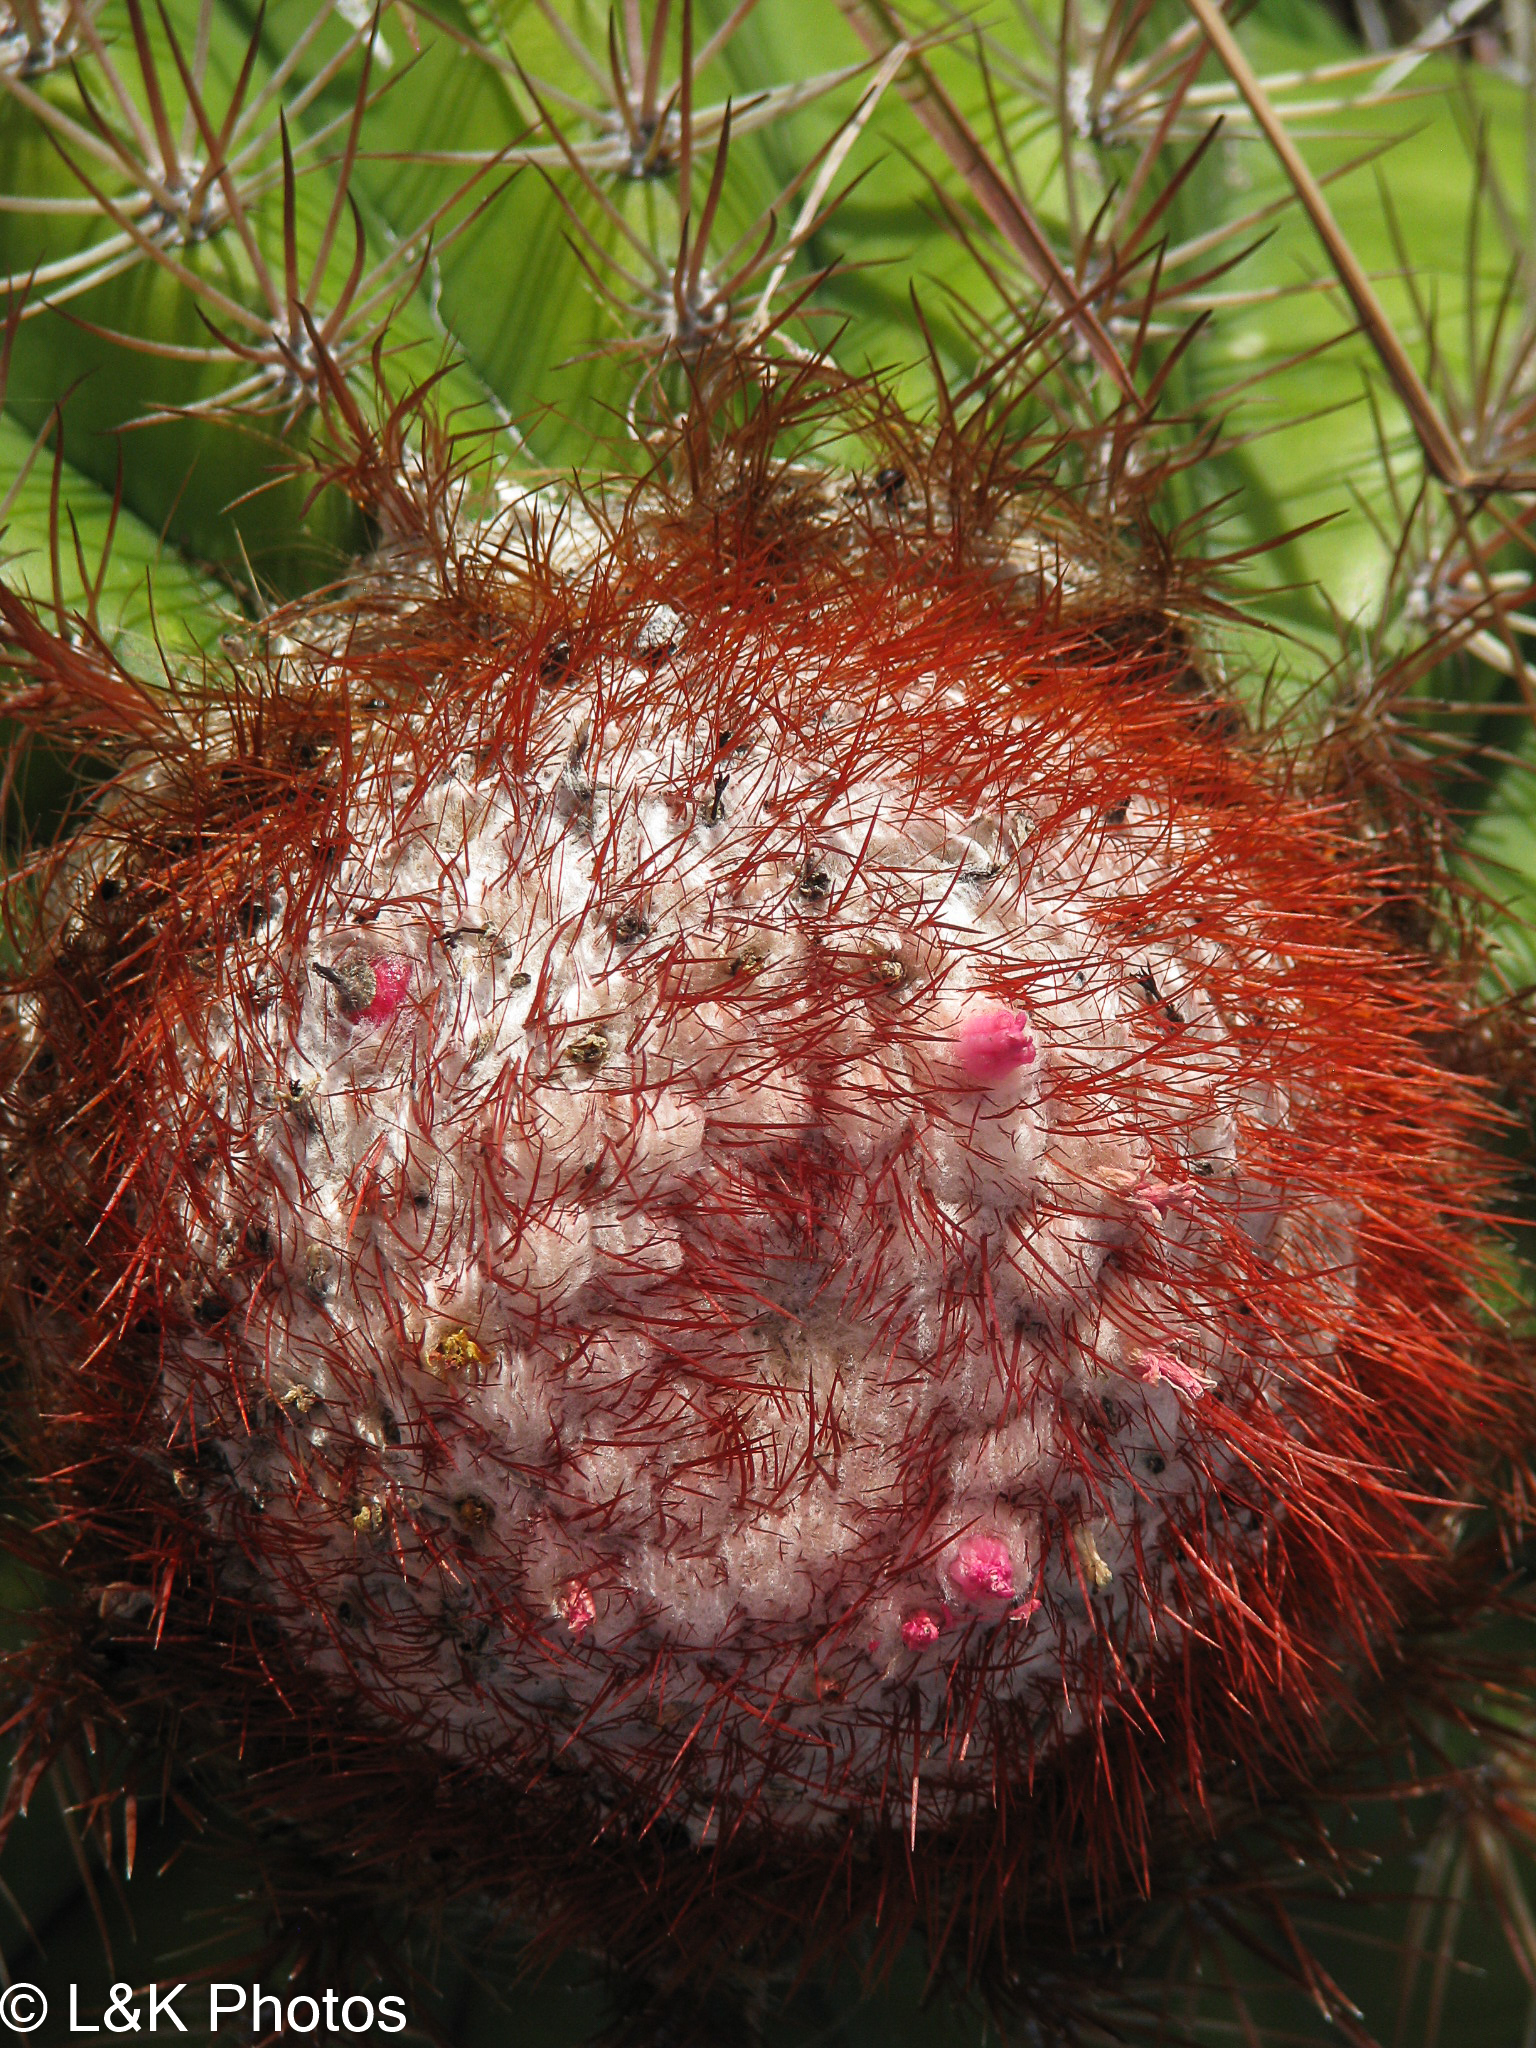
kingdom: Plantae
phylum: Tracheophyta
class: Magnoliopsida
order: Caryophyllales
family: Cactaceae
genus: Melocactus
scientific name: Melocactus intortus
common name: Barrel cactus
